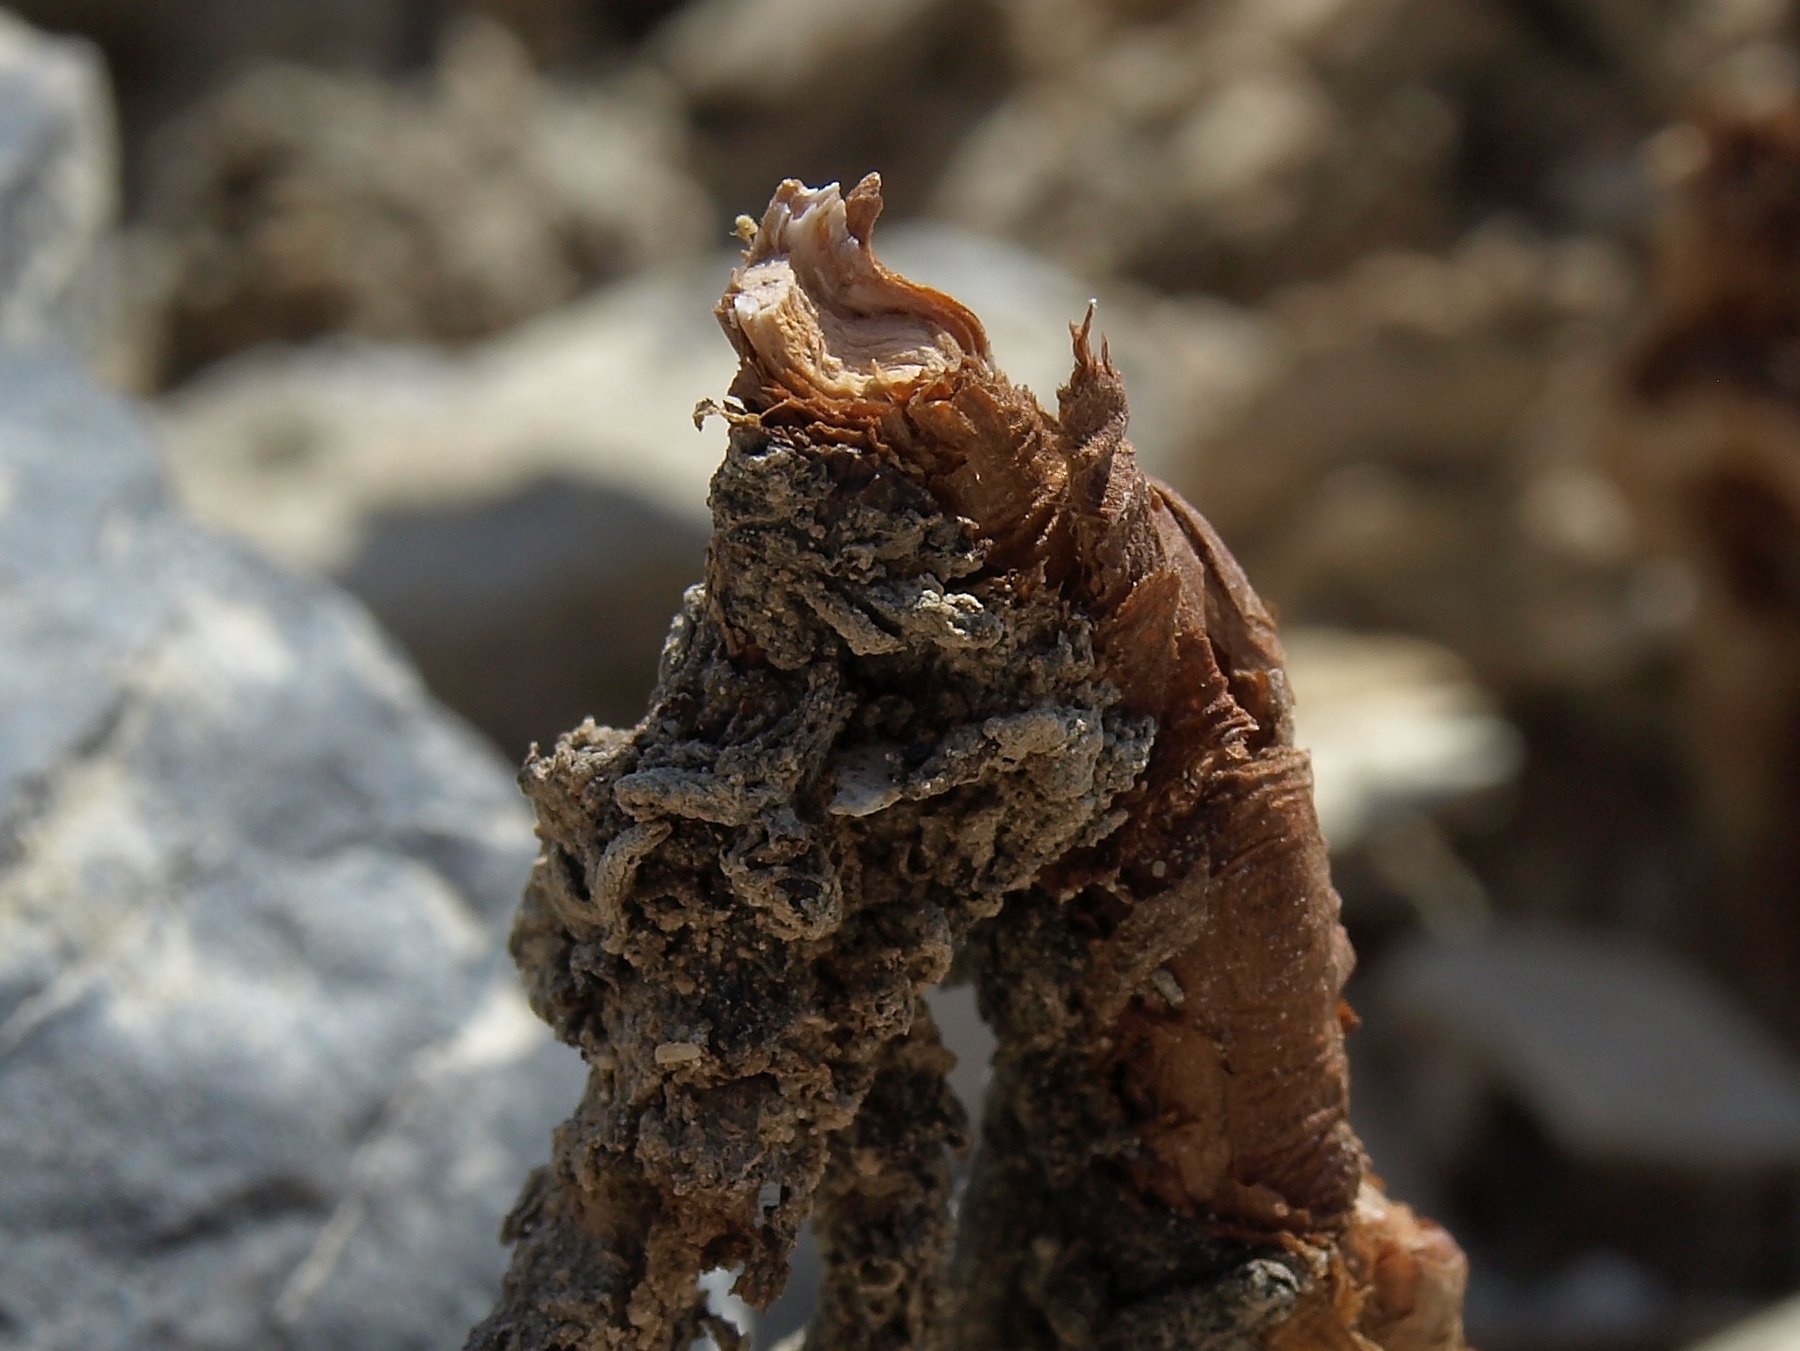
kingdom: Plantae
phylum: Tracheophyta
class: Magnoliopsida
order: Caryophyllales
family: Polygonaceae
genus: Eriogonum
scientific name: Eriogonum tiehmii
